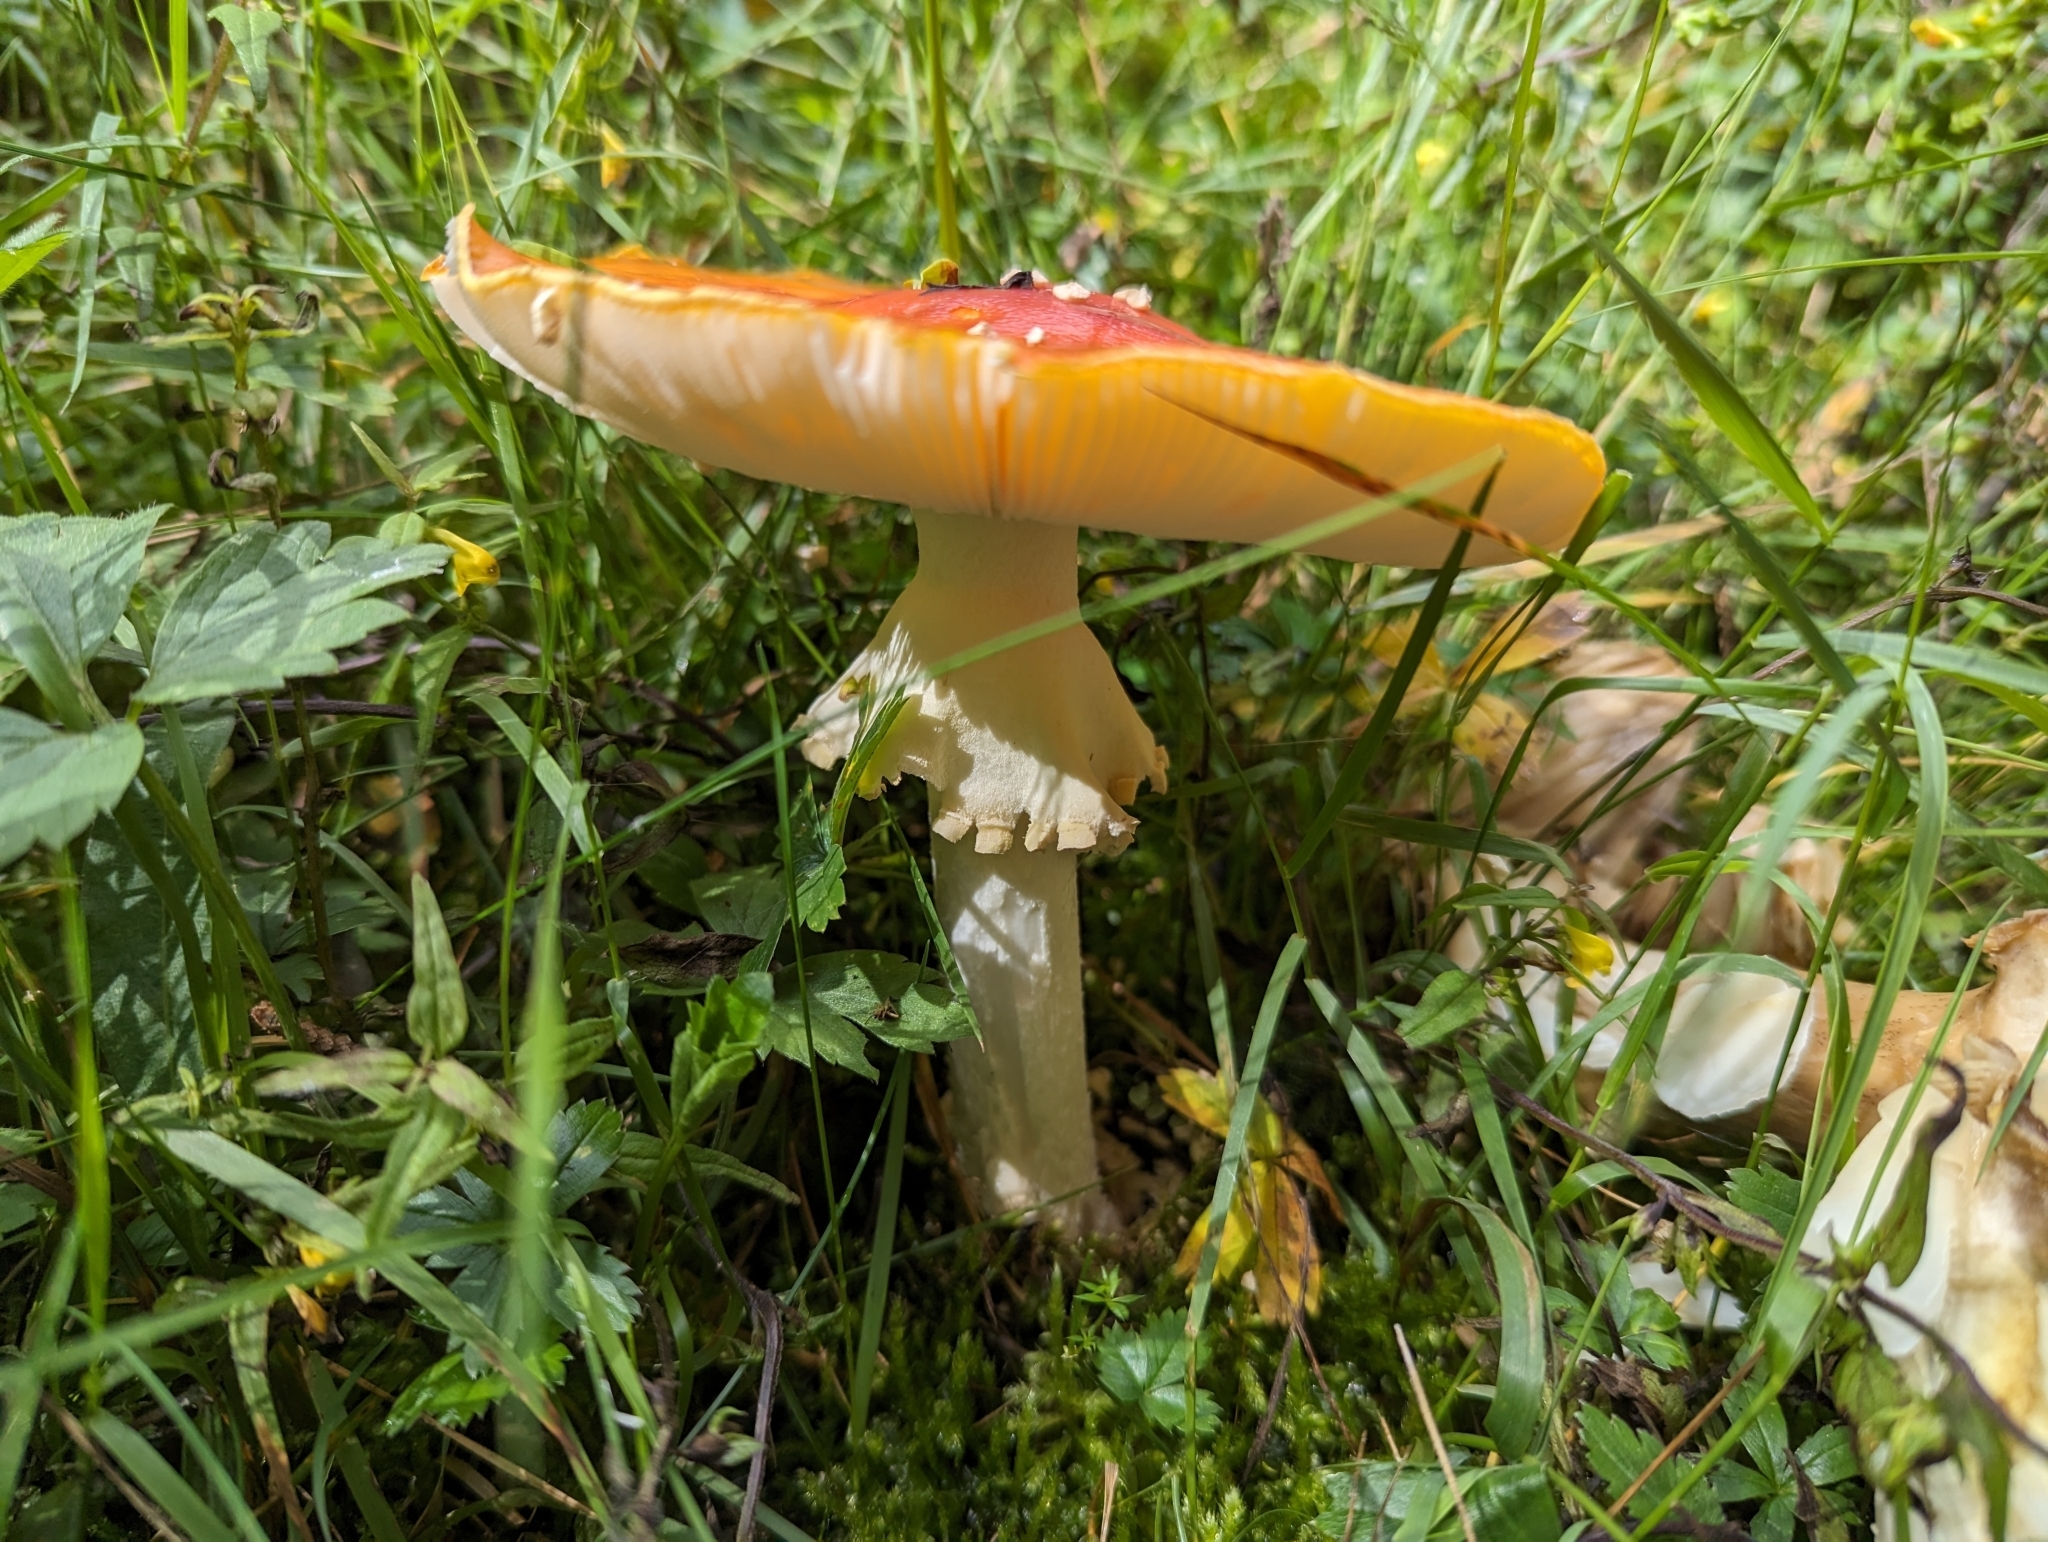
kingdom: Fungi
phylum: Basidiomycota
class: Agaricomycetes
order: Agaricales
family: Amanitaceae
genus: Amanita
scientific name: Amanita muscaria
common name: Fly agaric
